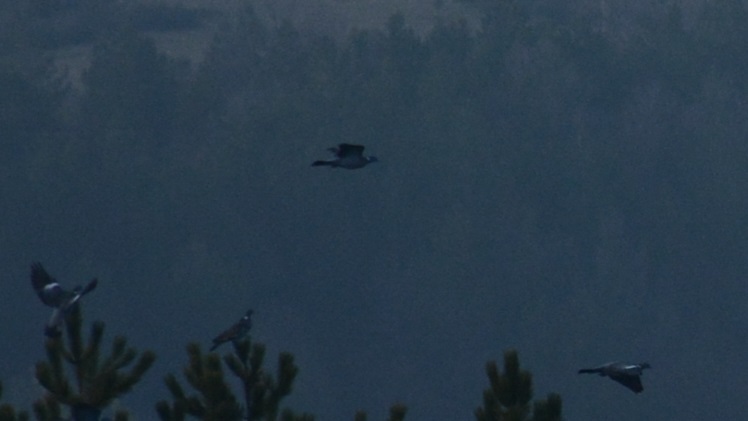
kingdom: Animalia
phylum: Chordata
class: Aves
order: Columbiformes
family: Columbidae
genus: Columba
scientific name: Columba palumbus
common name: Common wood pigeon
